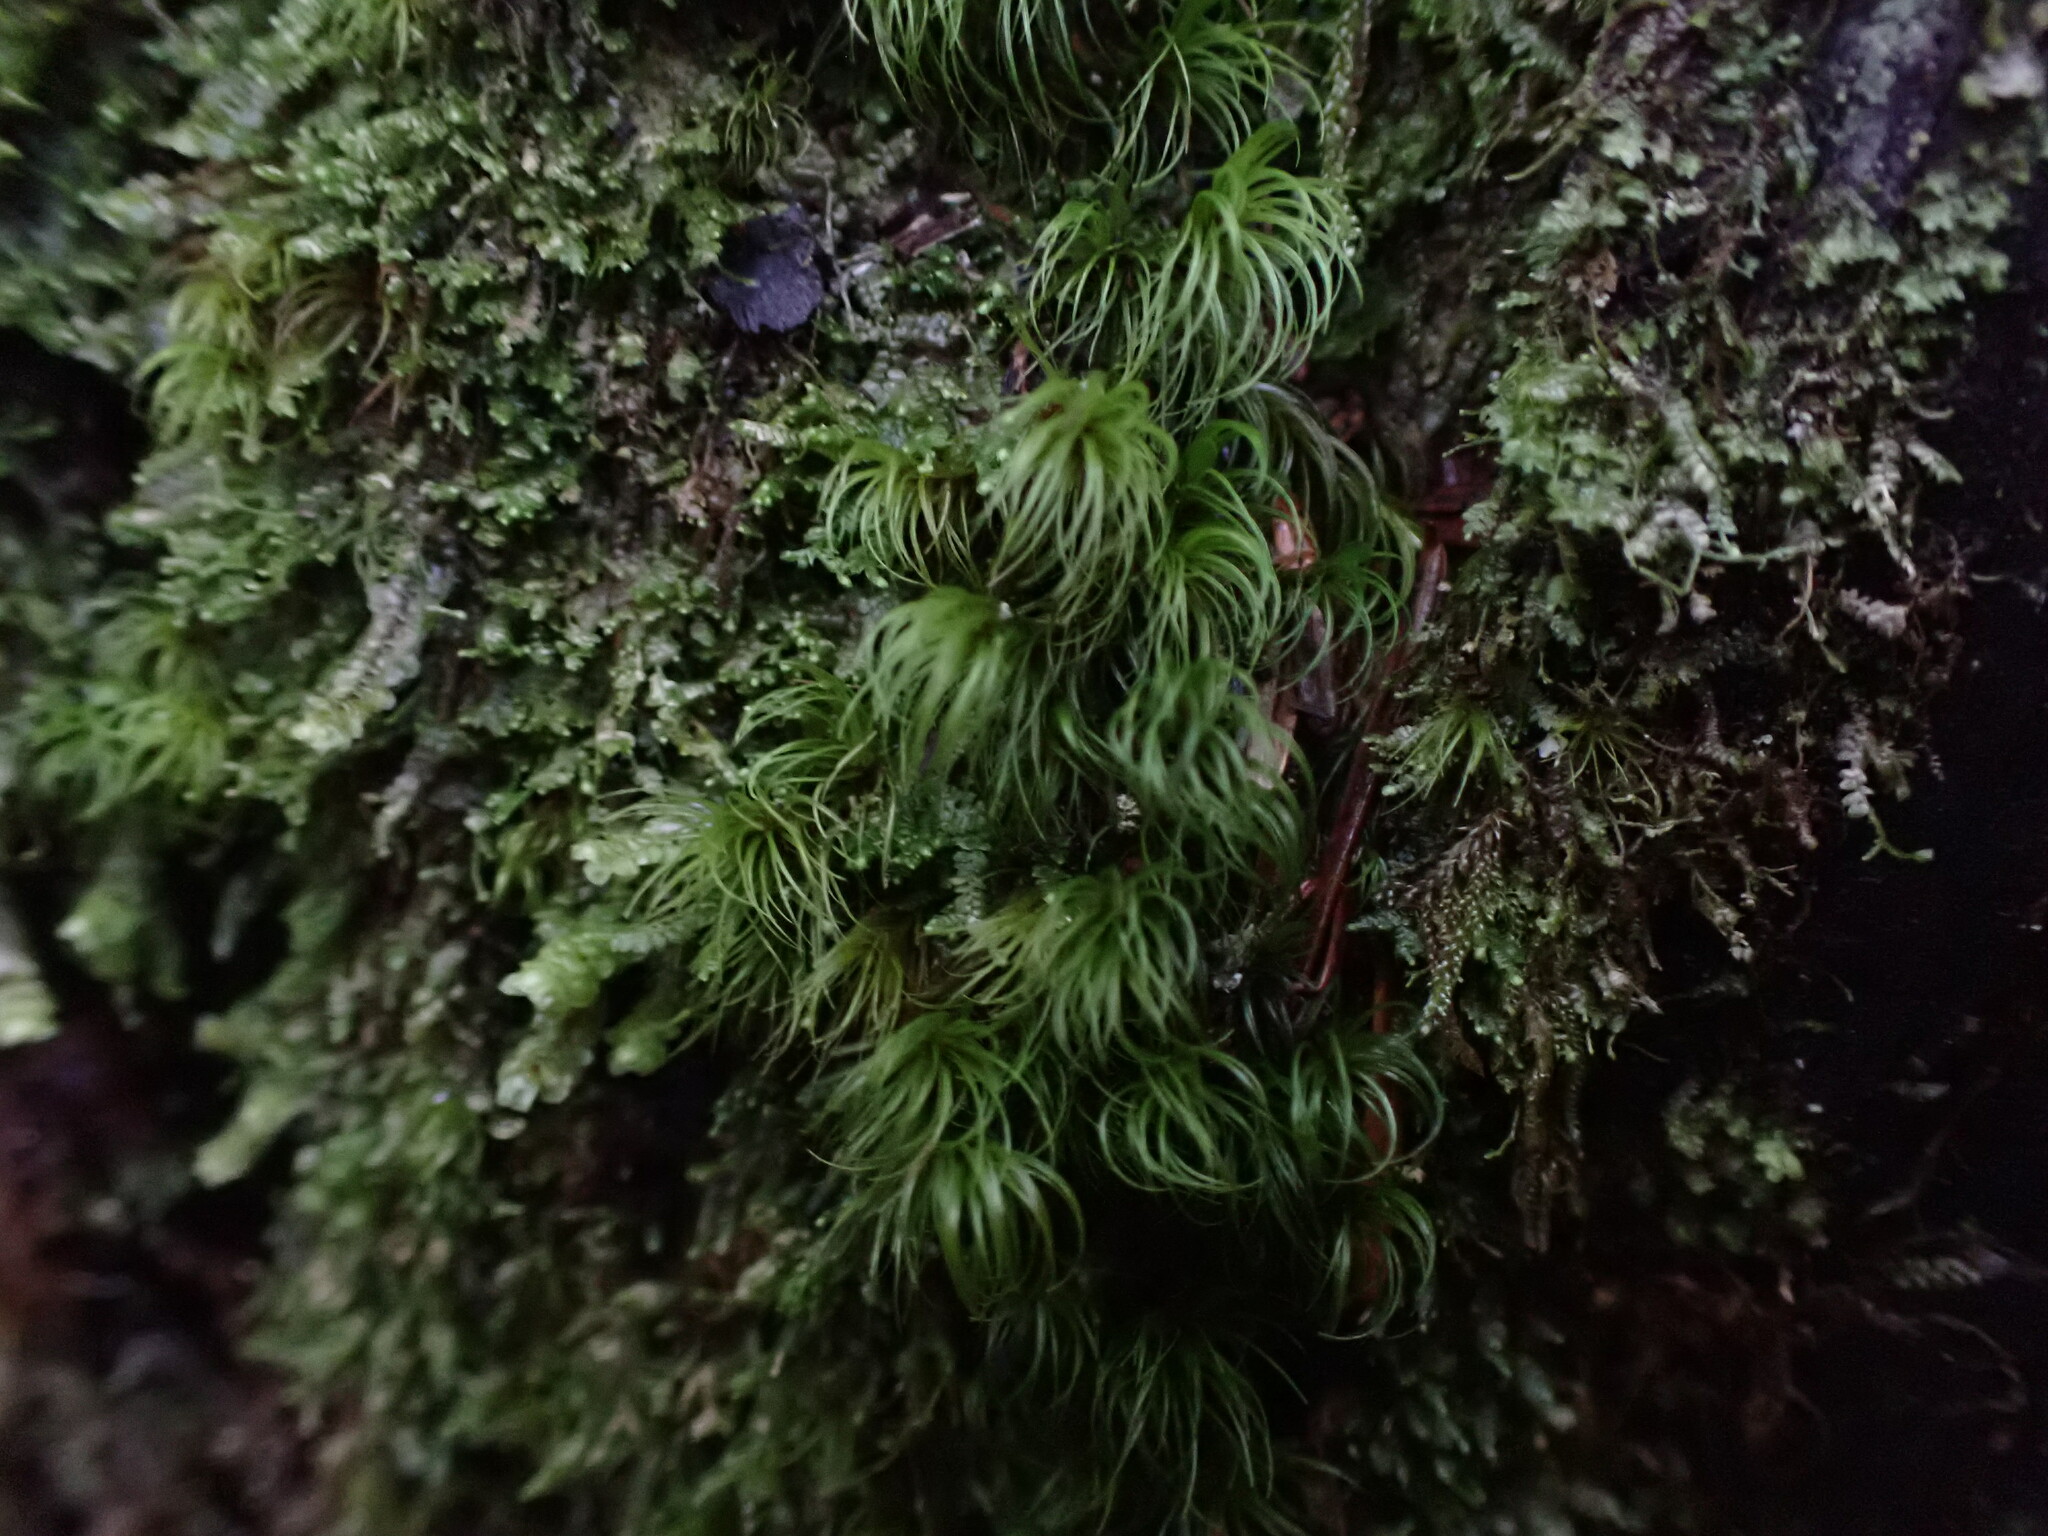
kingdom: Plantae
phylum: Bryophyta
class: Bryopsida
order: Dicranales
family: Dicranaceae
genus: Dicranum
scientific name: Dicranum fuscescens
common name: Curly heron's-bill moss
